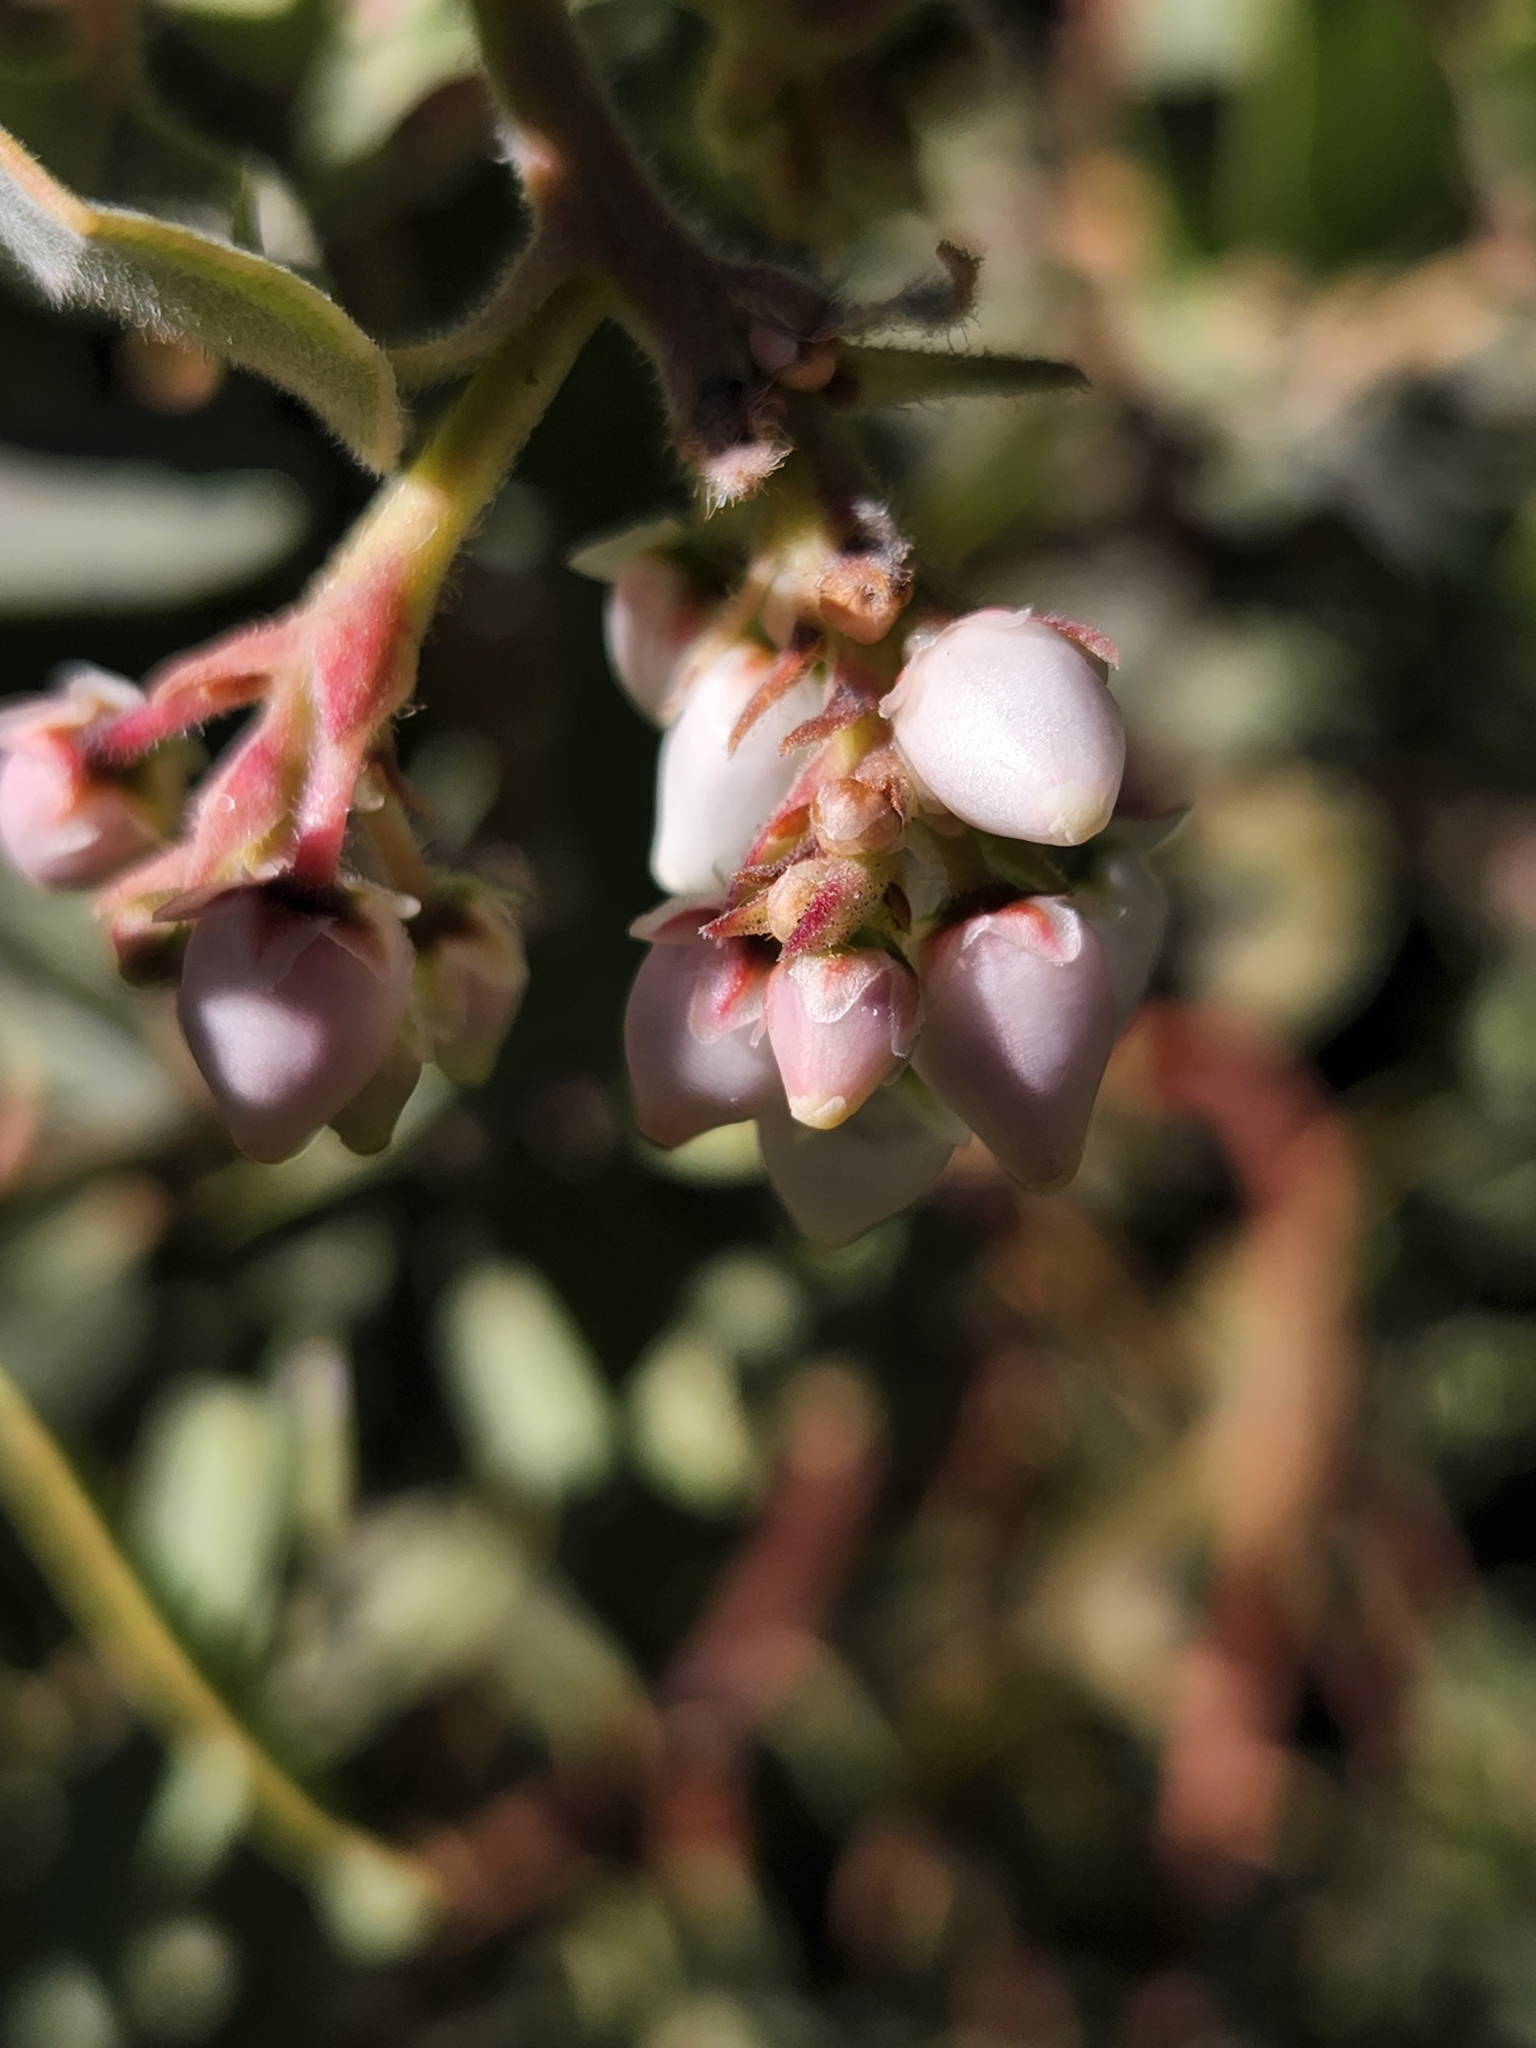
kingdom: Plantae
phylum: Tracheophyta
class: Magnoliopsida
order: Ericales
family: Ericaceae
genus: Arctostaphylos
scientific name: Arctostaphylos glandulosa
